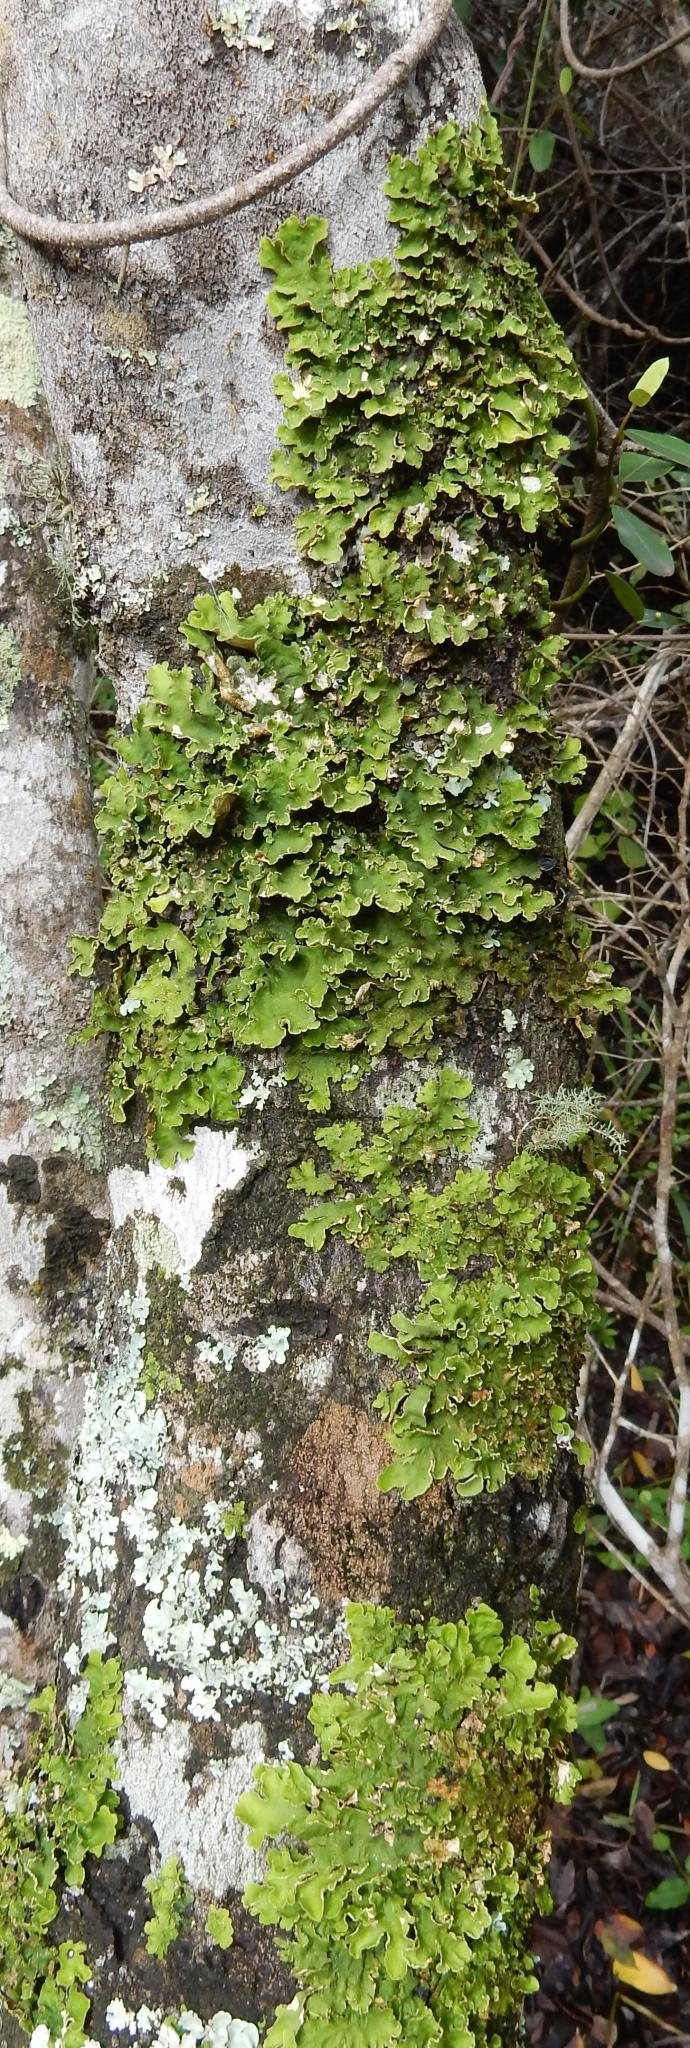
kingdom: Fungi
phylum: Ascomycota
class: Lecanoromycetes
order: Peltigerales
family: Lobariaceae
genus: Pseudocyphellaria
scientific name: Pseudocyphellaria aurata
